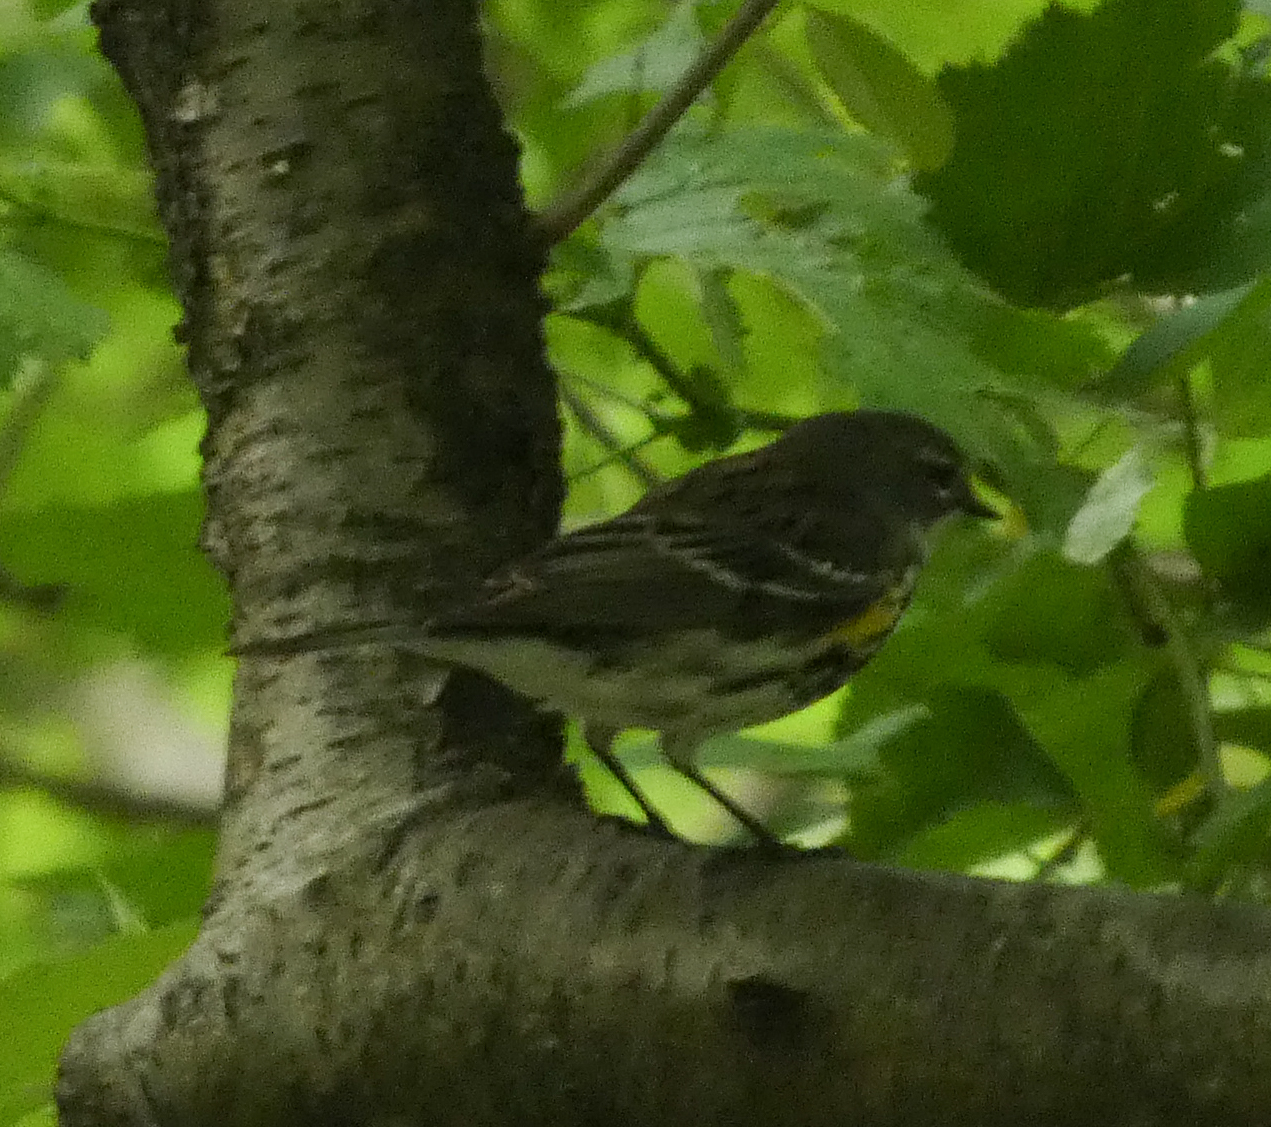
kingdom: Animalia
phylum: Chordata
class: Aves
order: Passeriformes
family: Parulidae
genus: Setophaga
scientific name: Setophaga coronata
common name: Myrtle warbler
